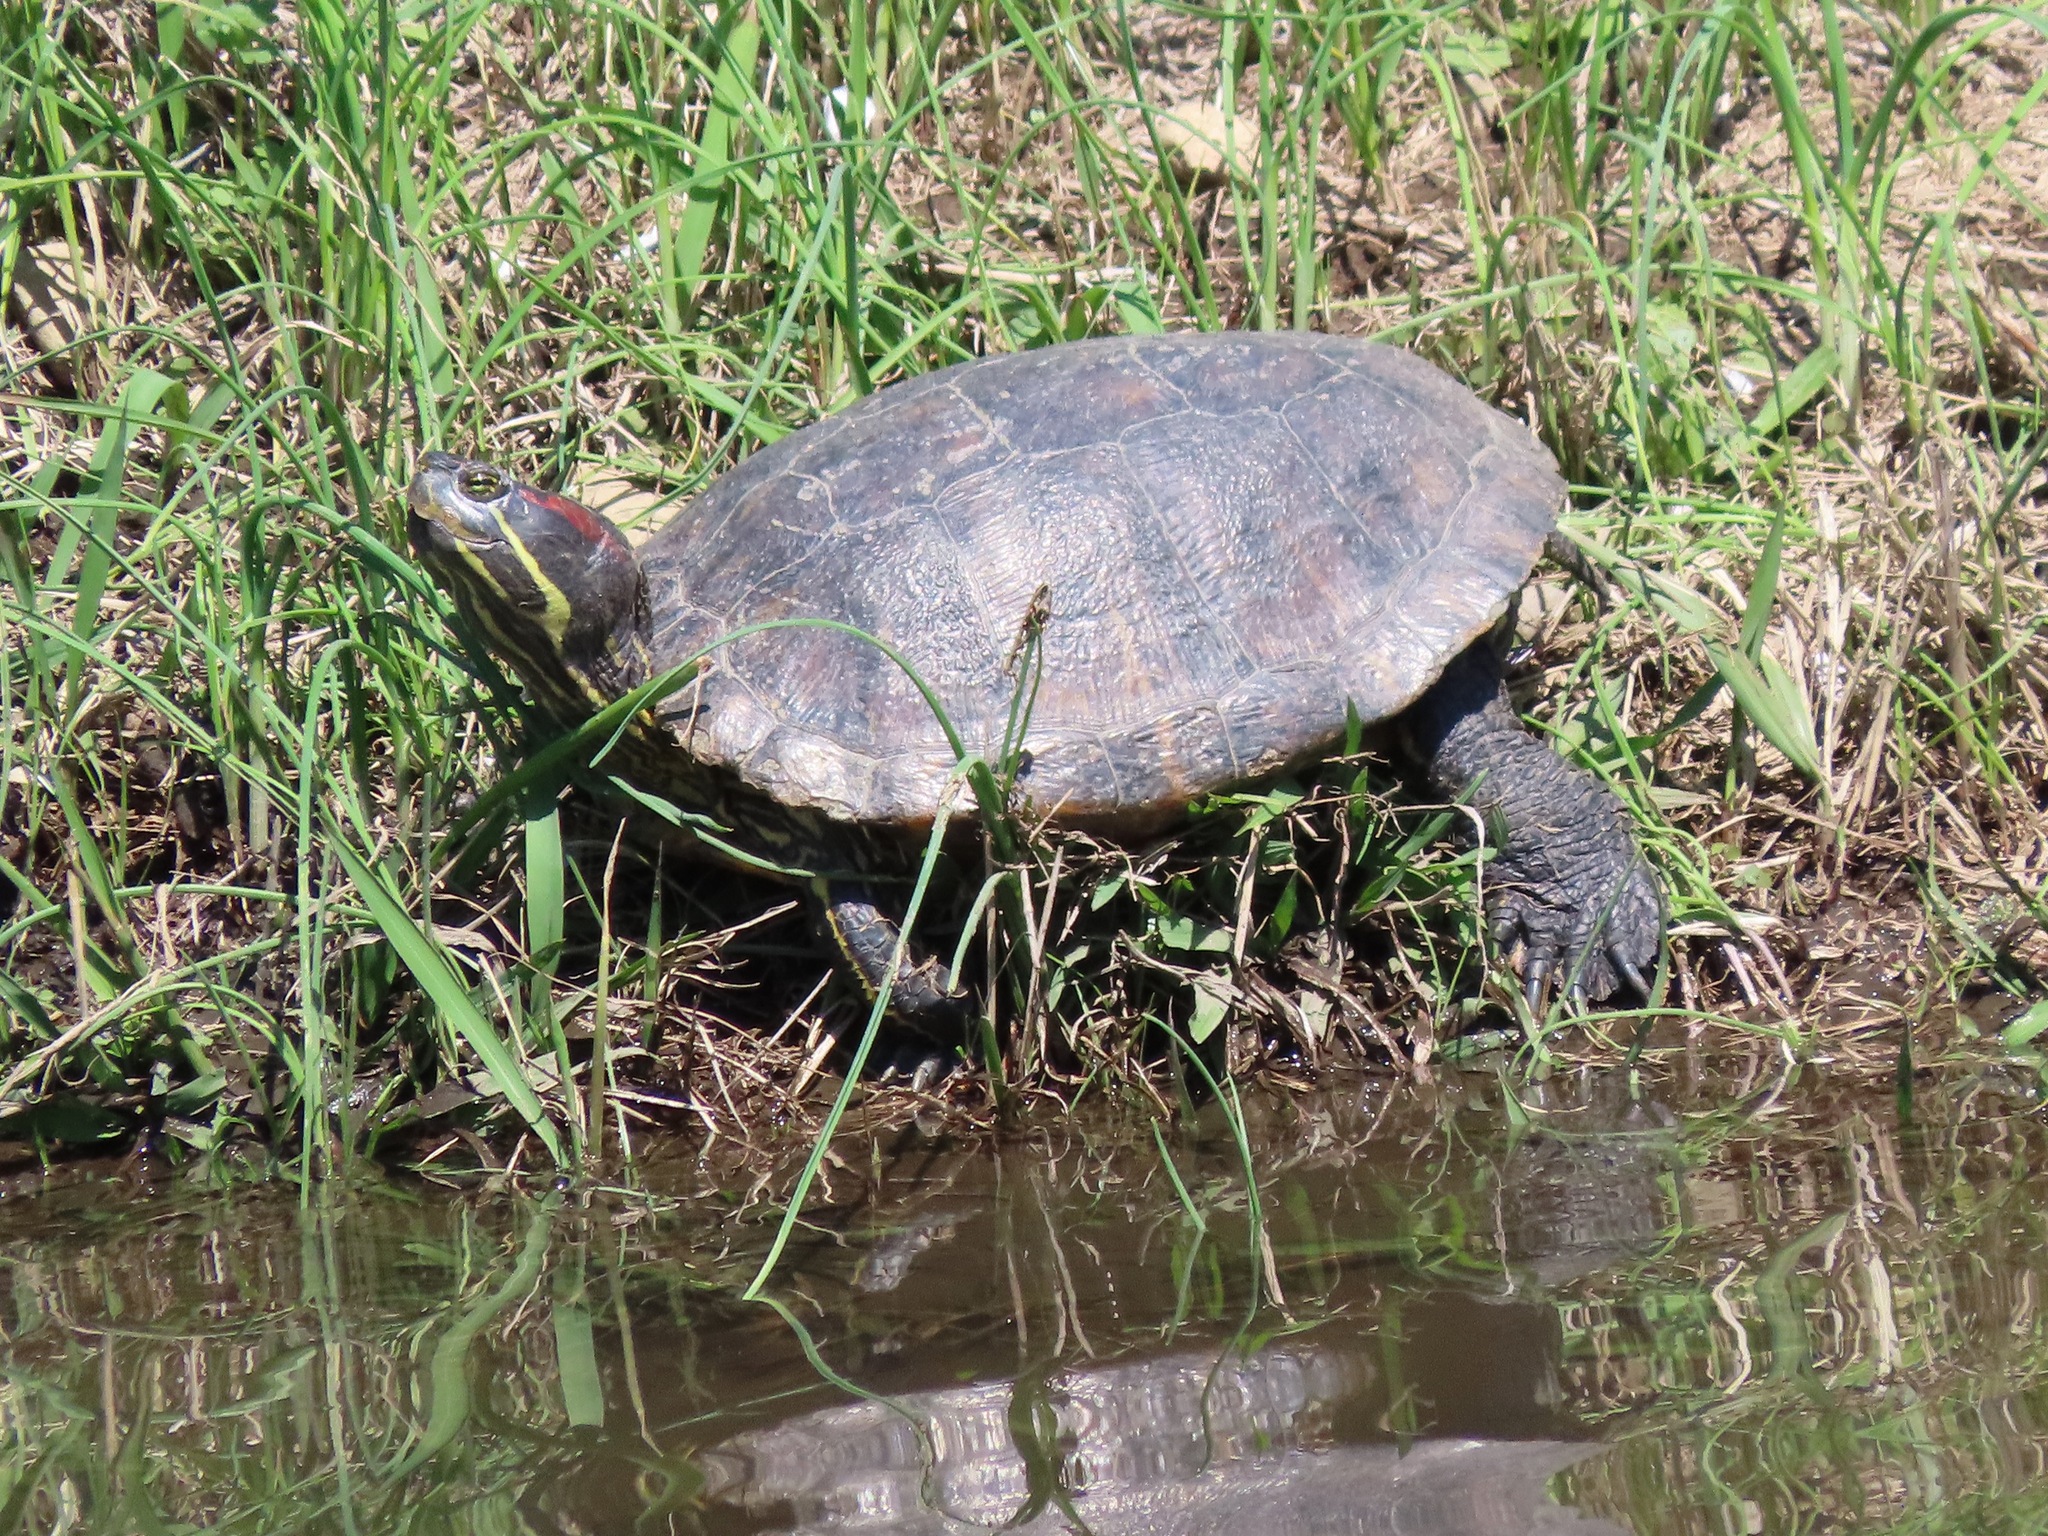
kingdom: Animalia
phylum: Chordata
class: Testudines
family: Emydidae
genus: Trachemys
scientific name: Trachemys scripta
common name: Slider
